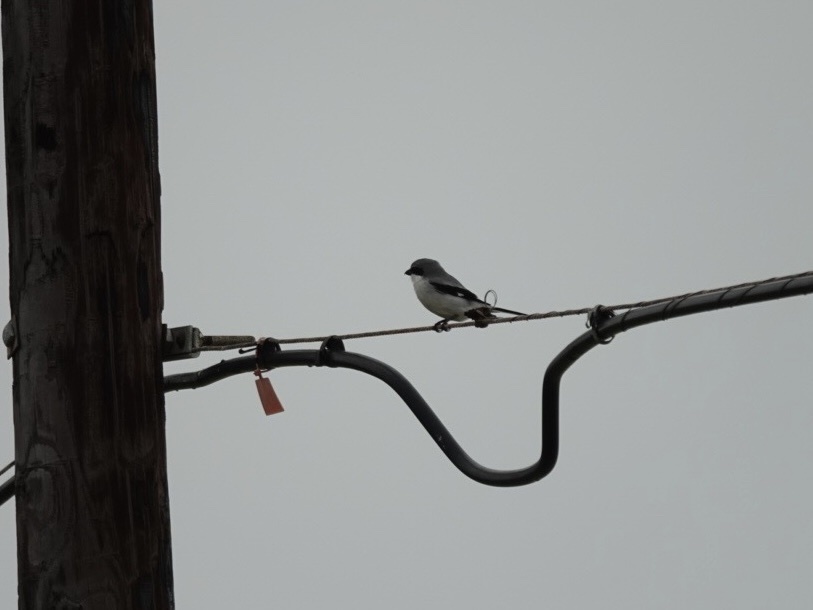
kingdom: Animalia
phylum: Chordata
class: Aves
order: Passeriformes
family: Laniidae
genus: Lanius
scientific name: Lanius ludovicianus
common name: Loggerhead shrike
